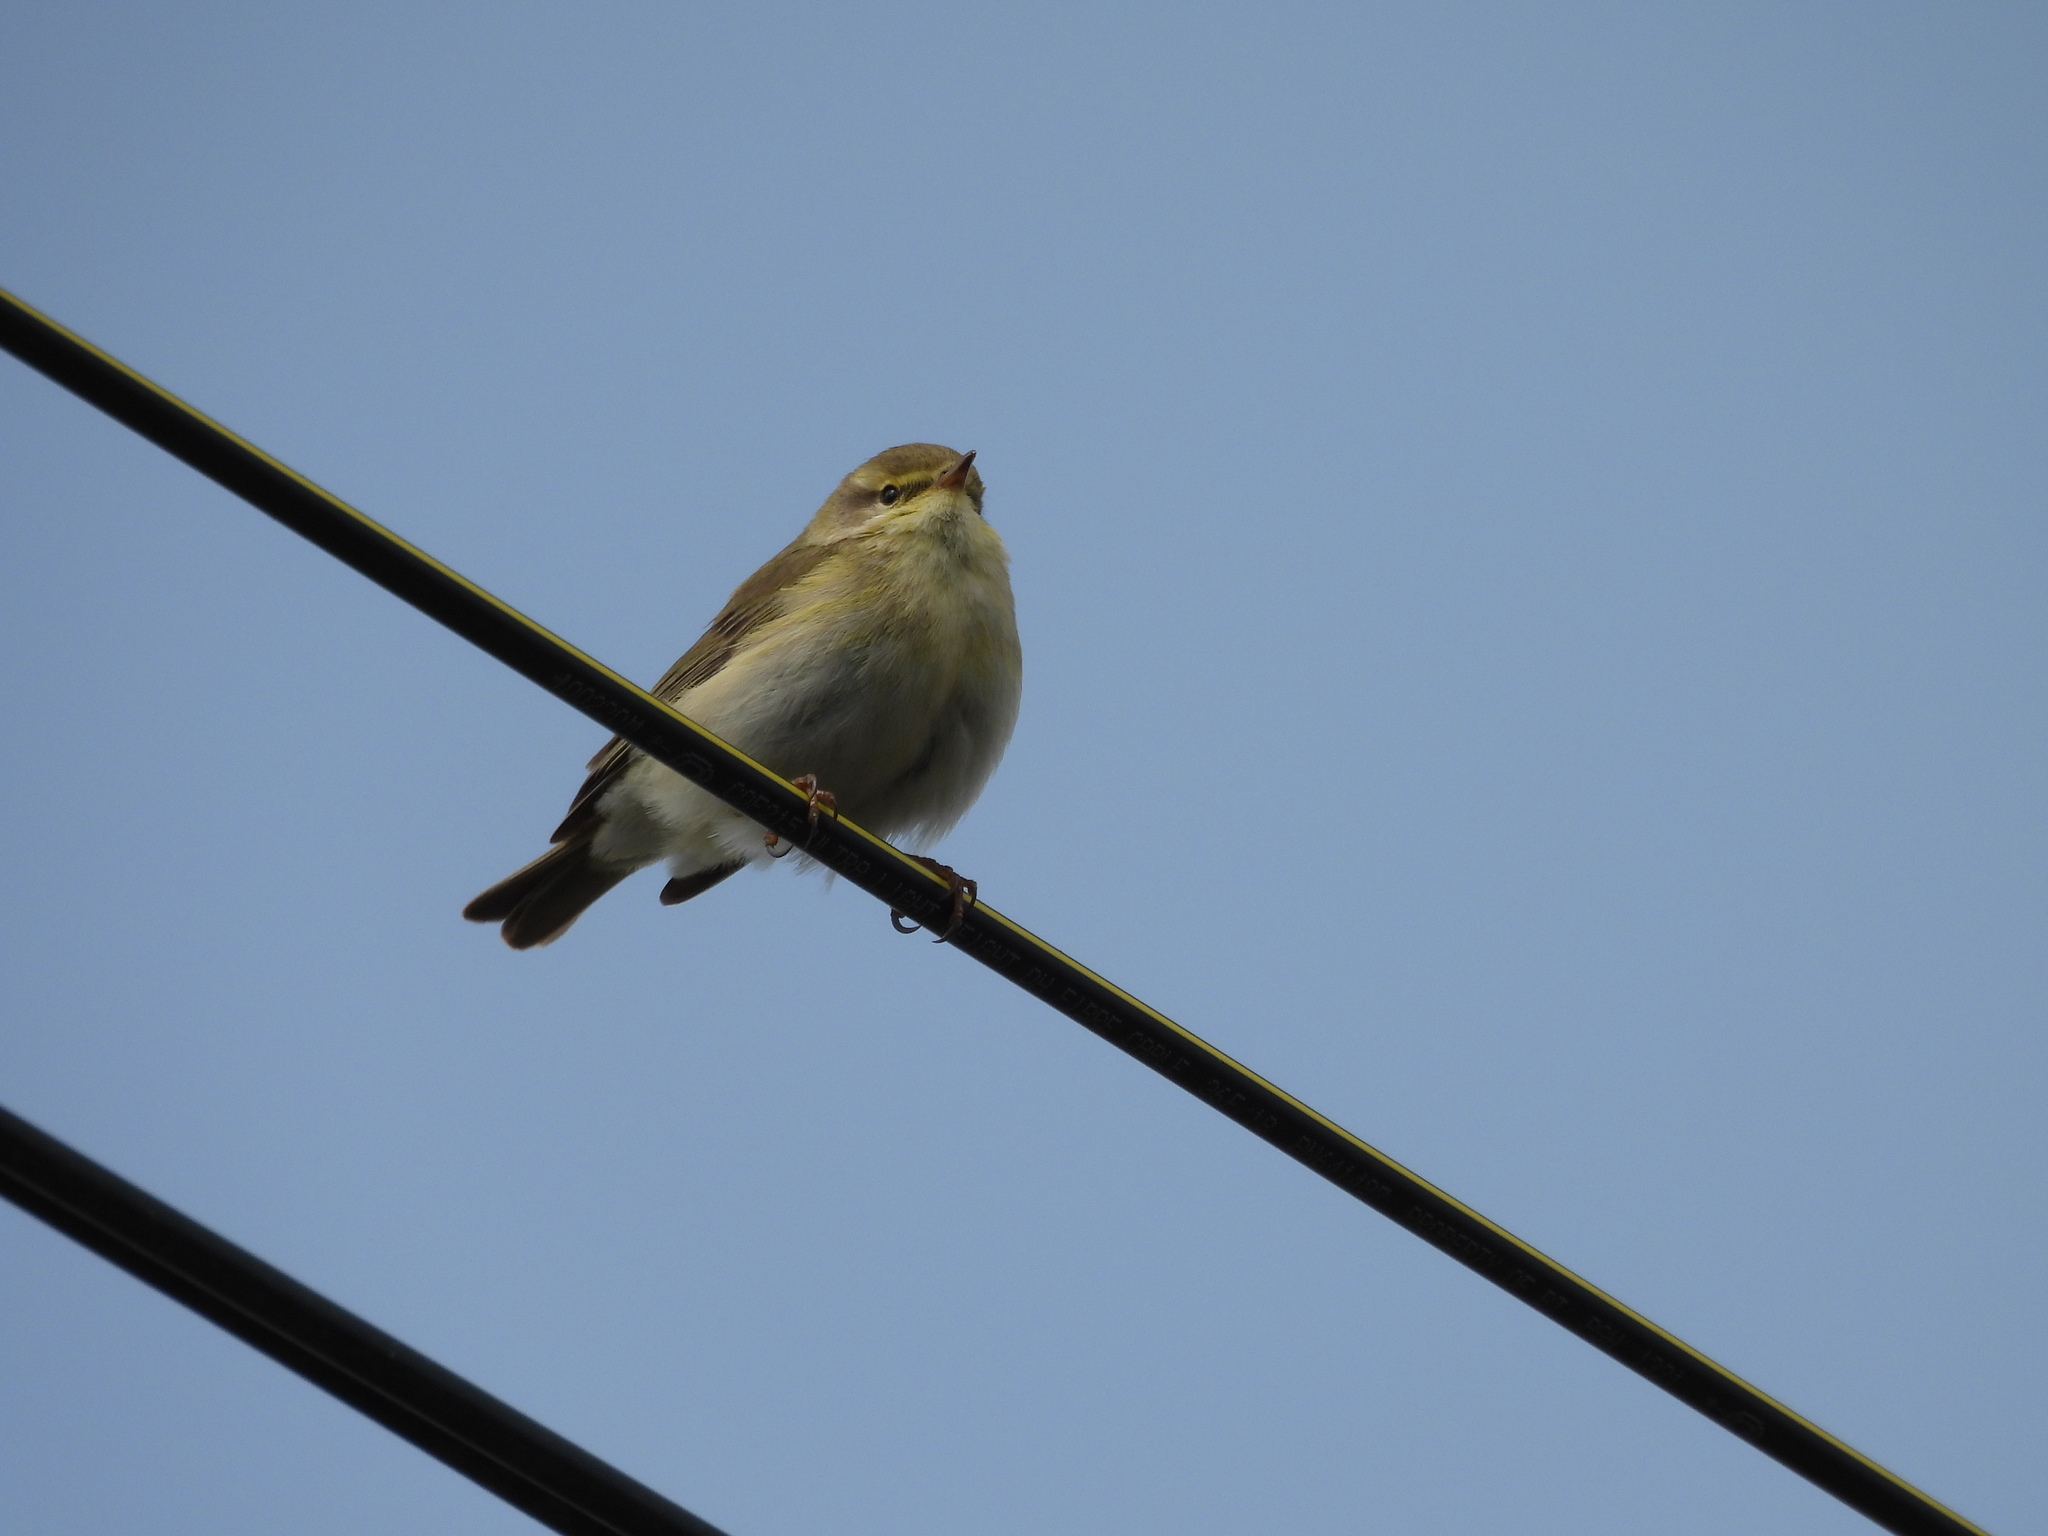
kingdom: Animalia
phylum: Chordata
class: Aves
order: Passeriformes
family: Phylloscopidae
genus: Phylloscopus
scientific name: Phylloscopus trochilus
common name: Willow warbler
